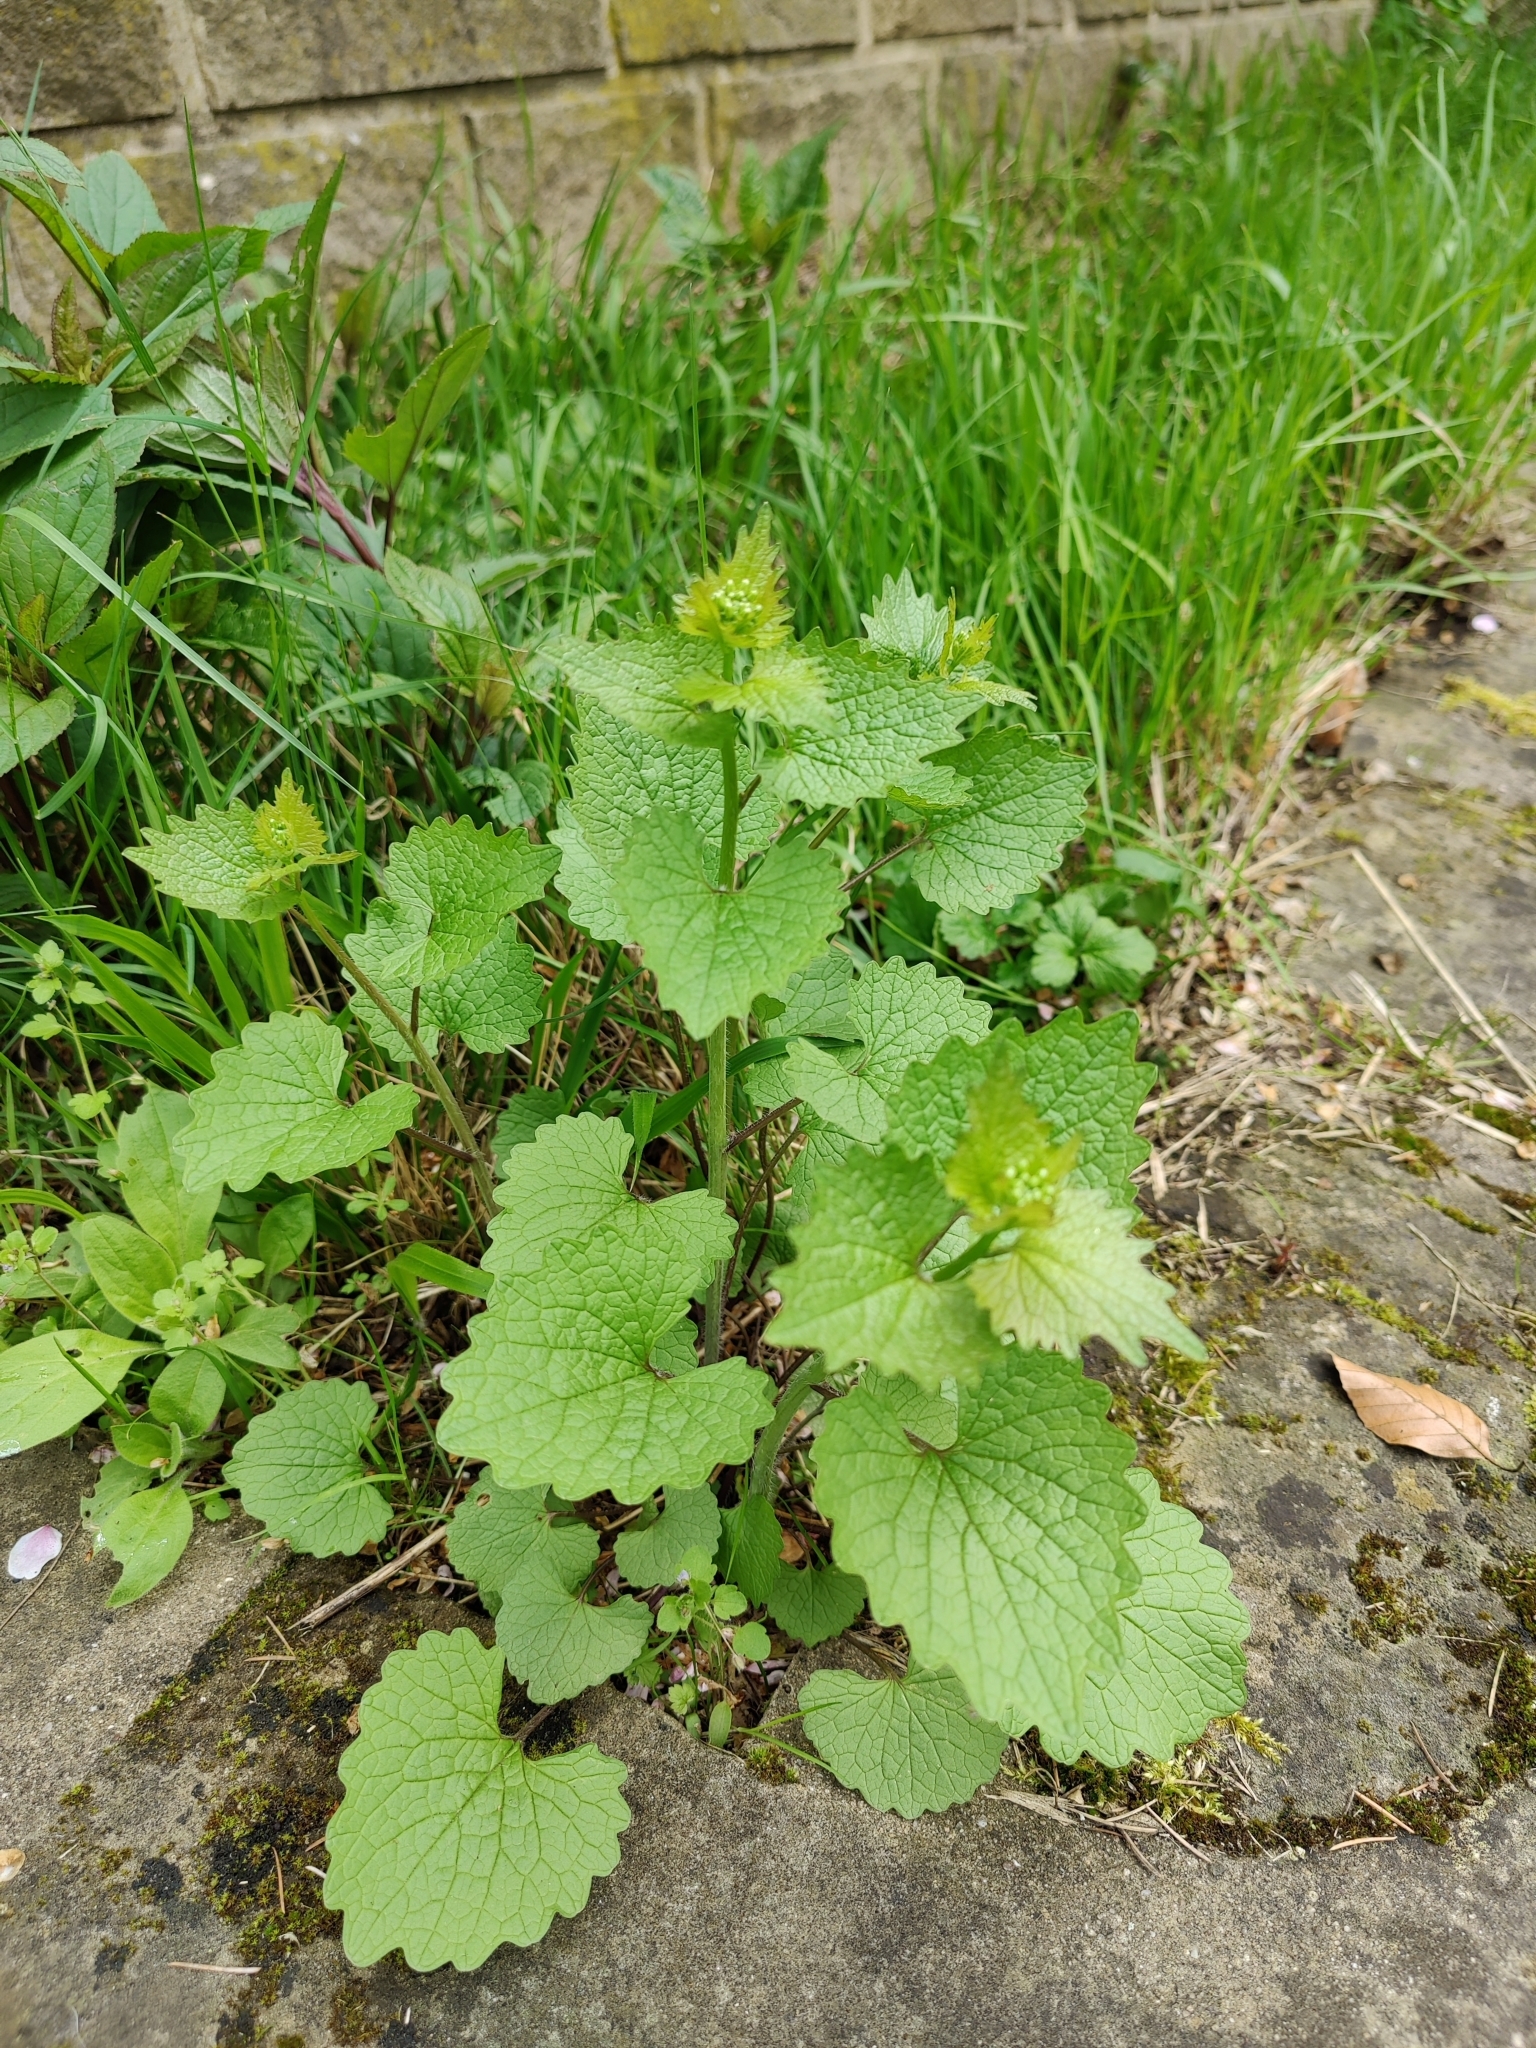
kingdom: Plantae
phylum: Tracheophyta
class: Magnoliopsida
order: Brassicales
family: Brassicaceae
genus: Alliaria
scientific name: Alliaria petiolata
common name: Garlic mustard
